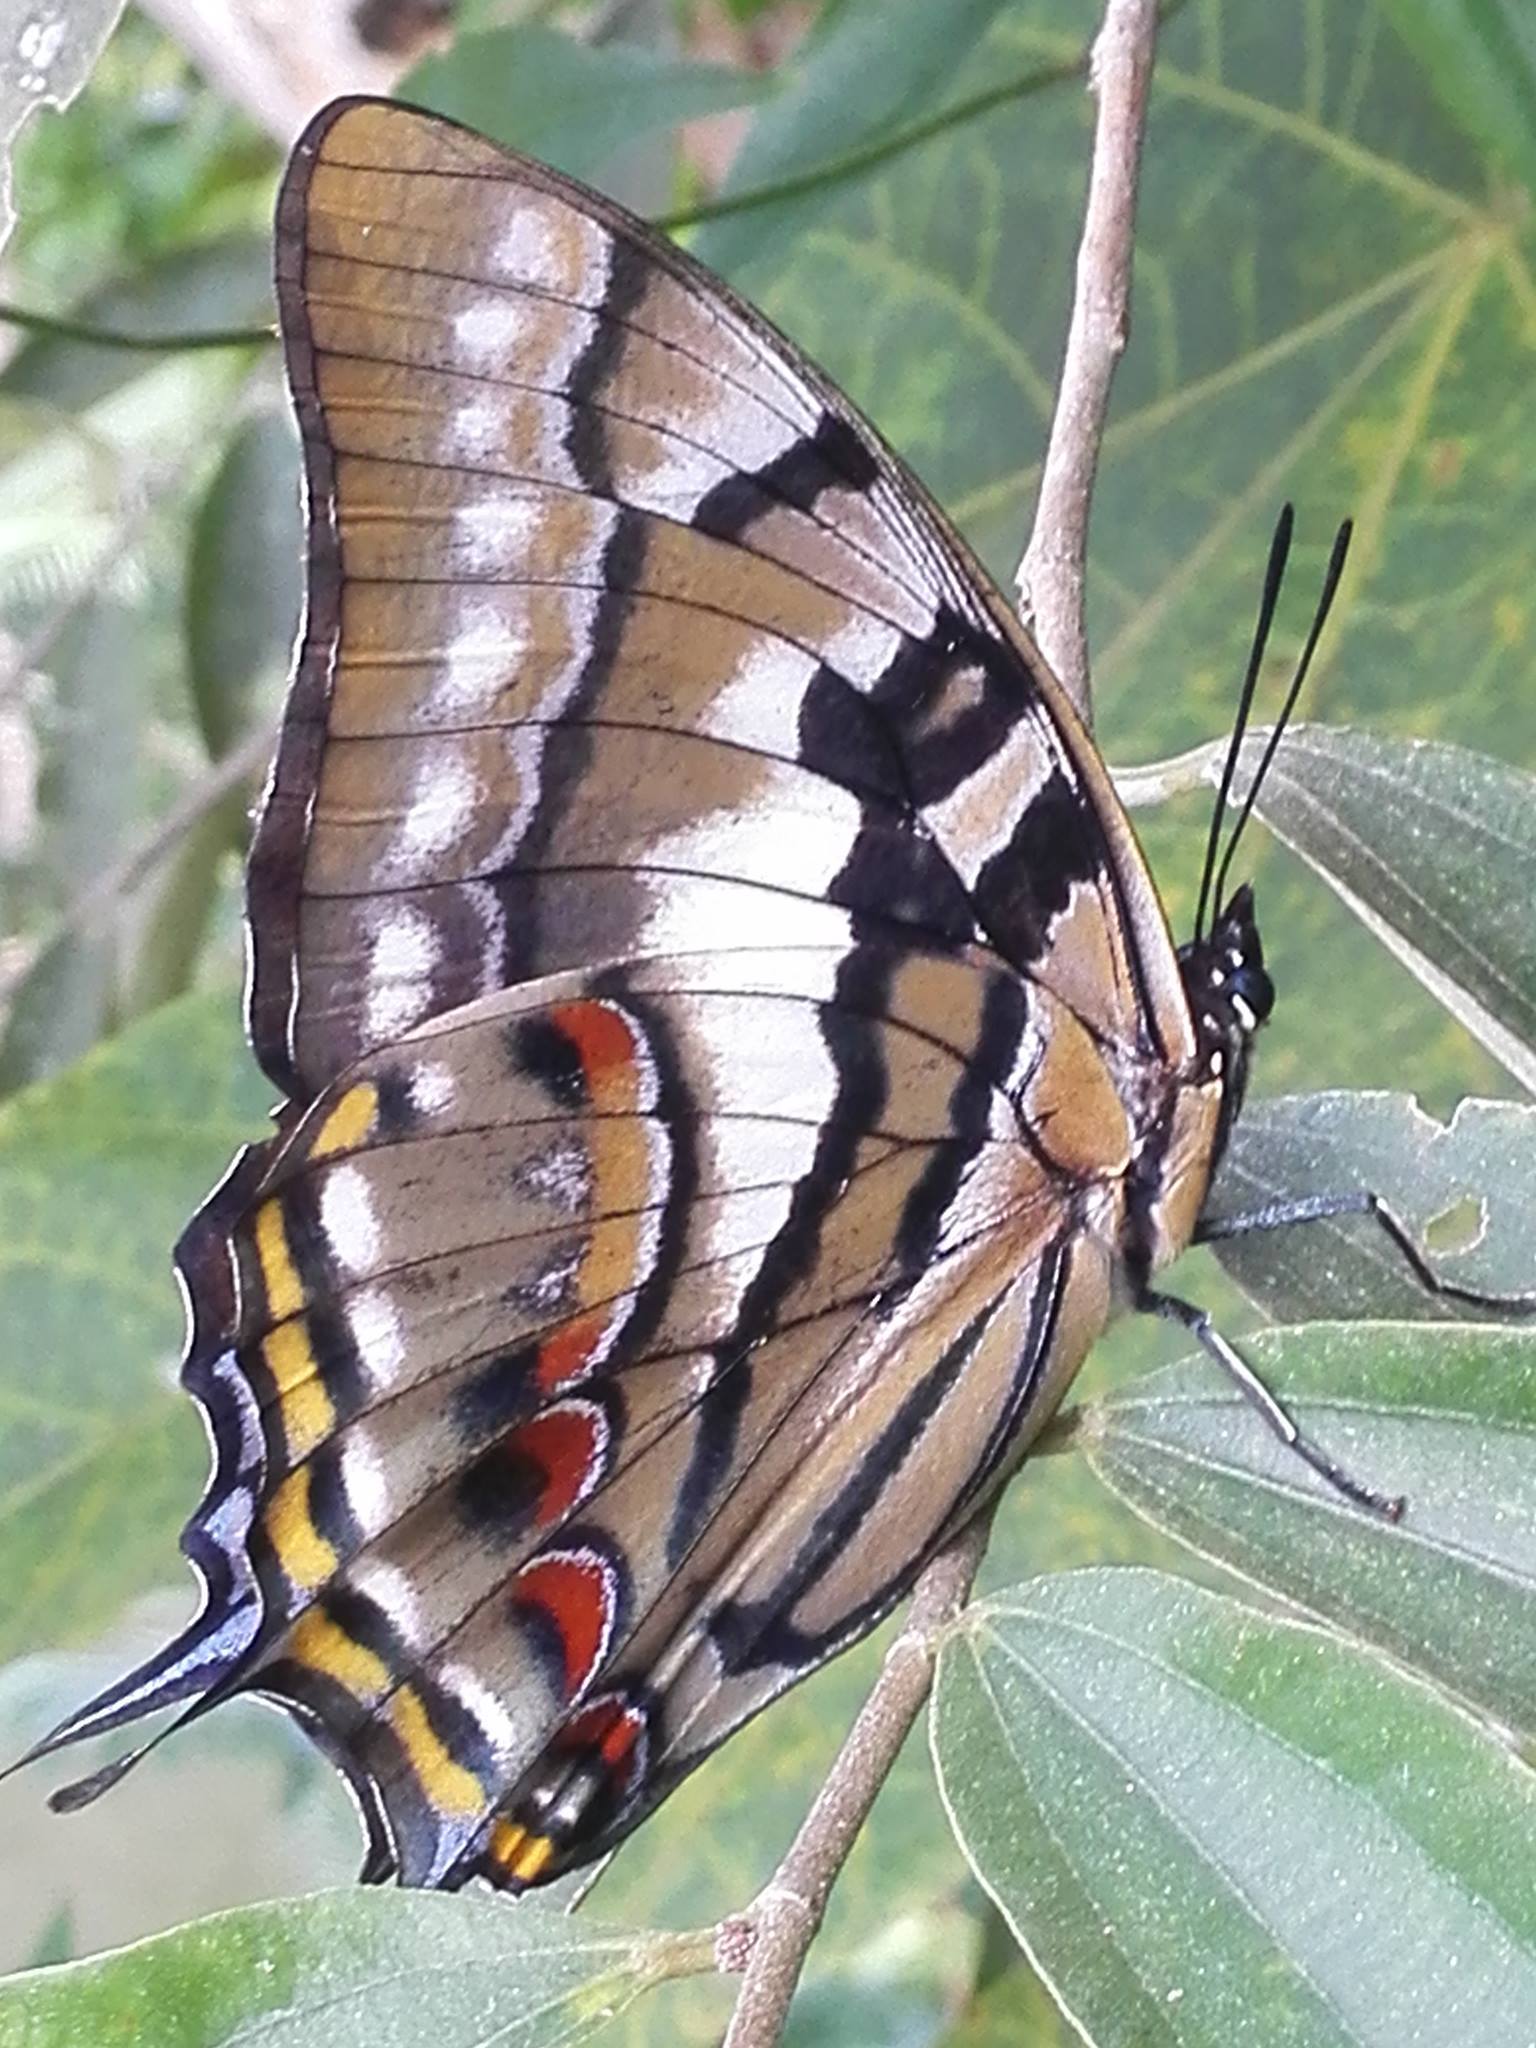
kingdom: Animalia
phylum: Arthropoda
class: Insecta
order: Lepidoptera
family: Nymphalidae
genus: Polyura
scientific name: Polyura pyrrhus
